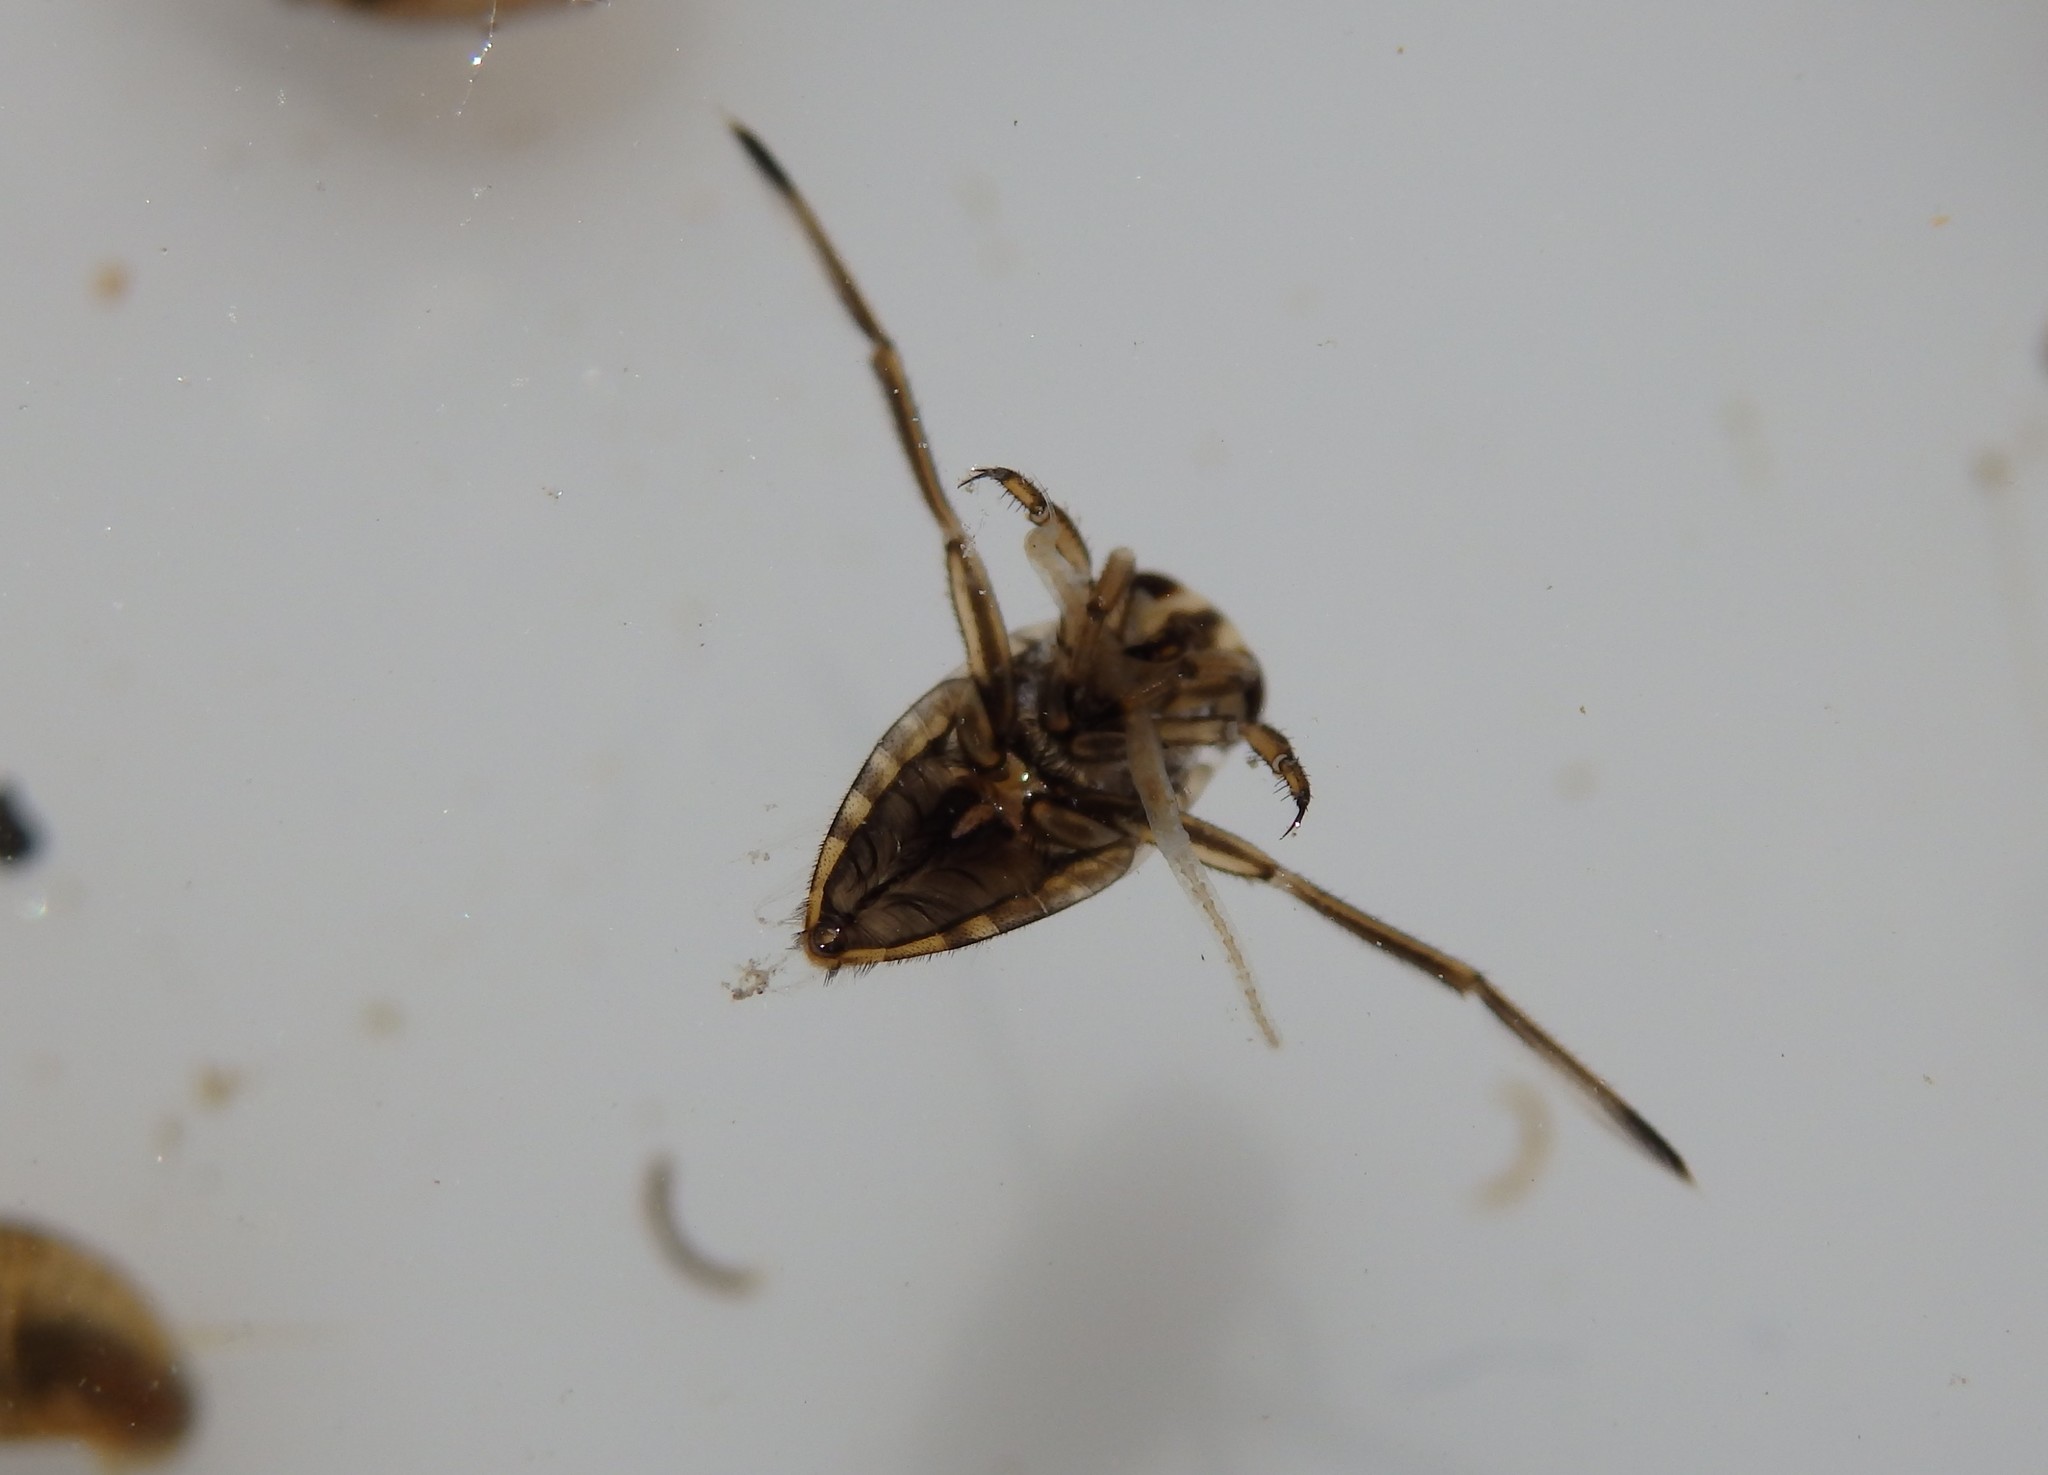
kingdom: Animalia
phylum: Arthropoda
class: Insecta
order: Hemiptera
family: Notonectidae
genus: Notonecta
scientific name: Notonecta
